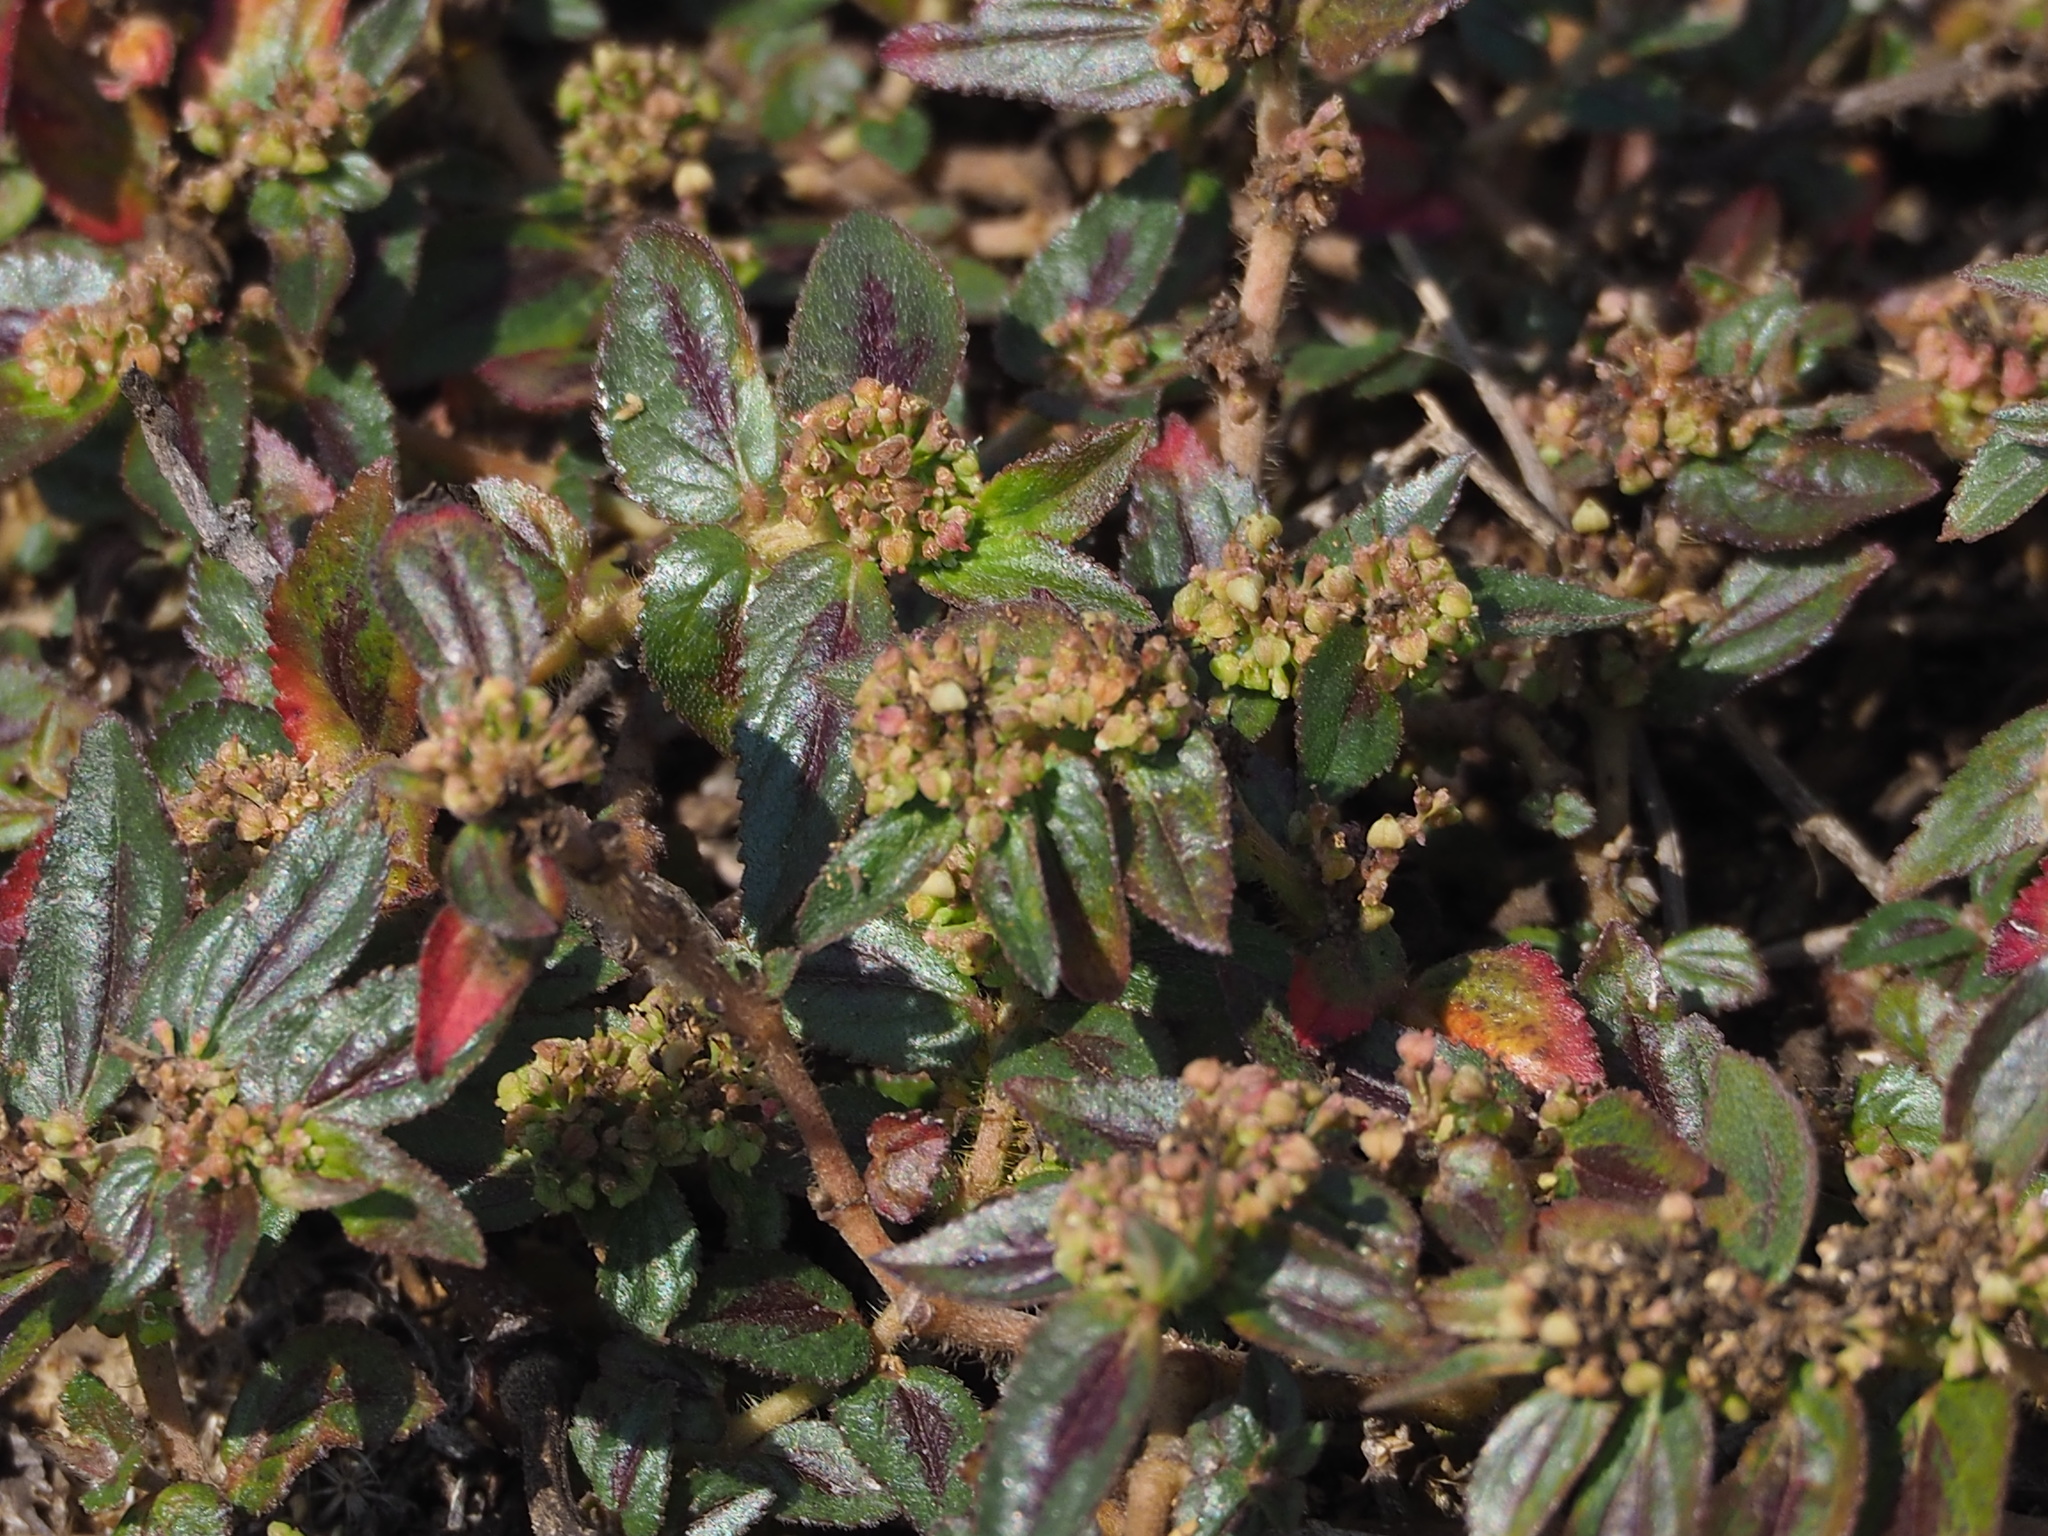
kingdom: Plantae
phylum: Tracheophyta
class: Magnoliopsida
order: Malpighiales
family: Euphorbiaceae
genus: Euphorbia
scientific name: Euphorbia hirta
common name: Pillpod sandmat
